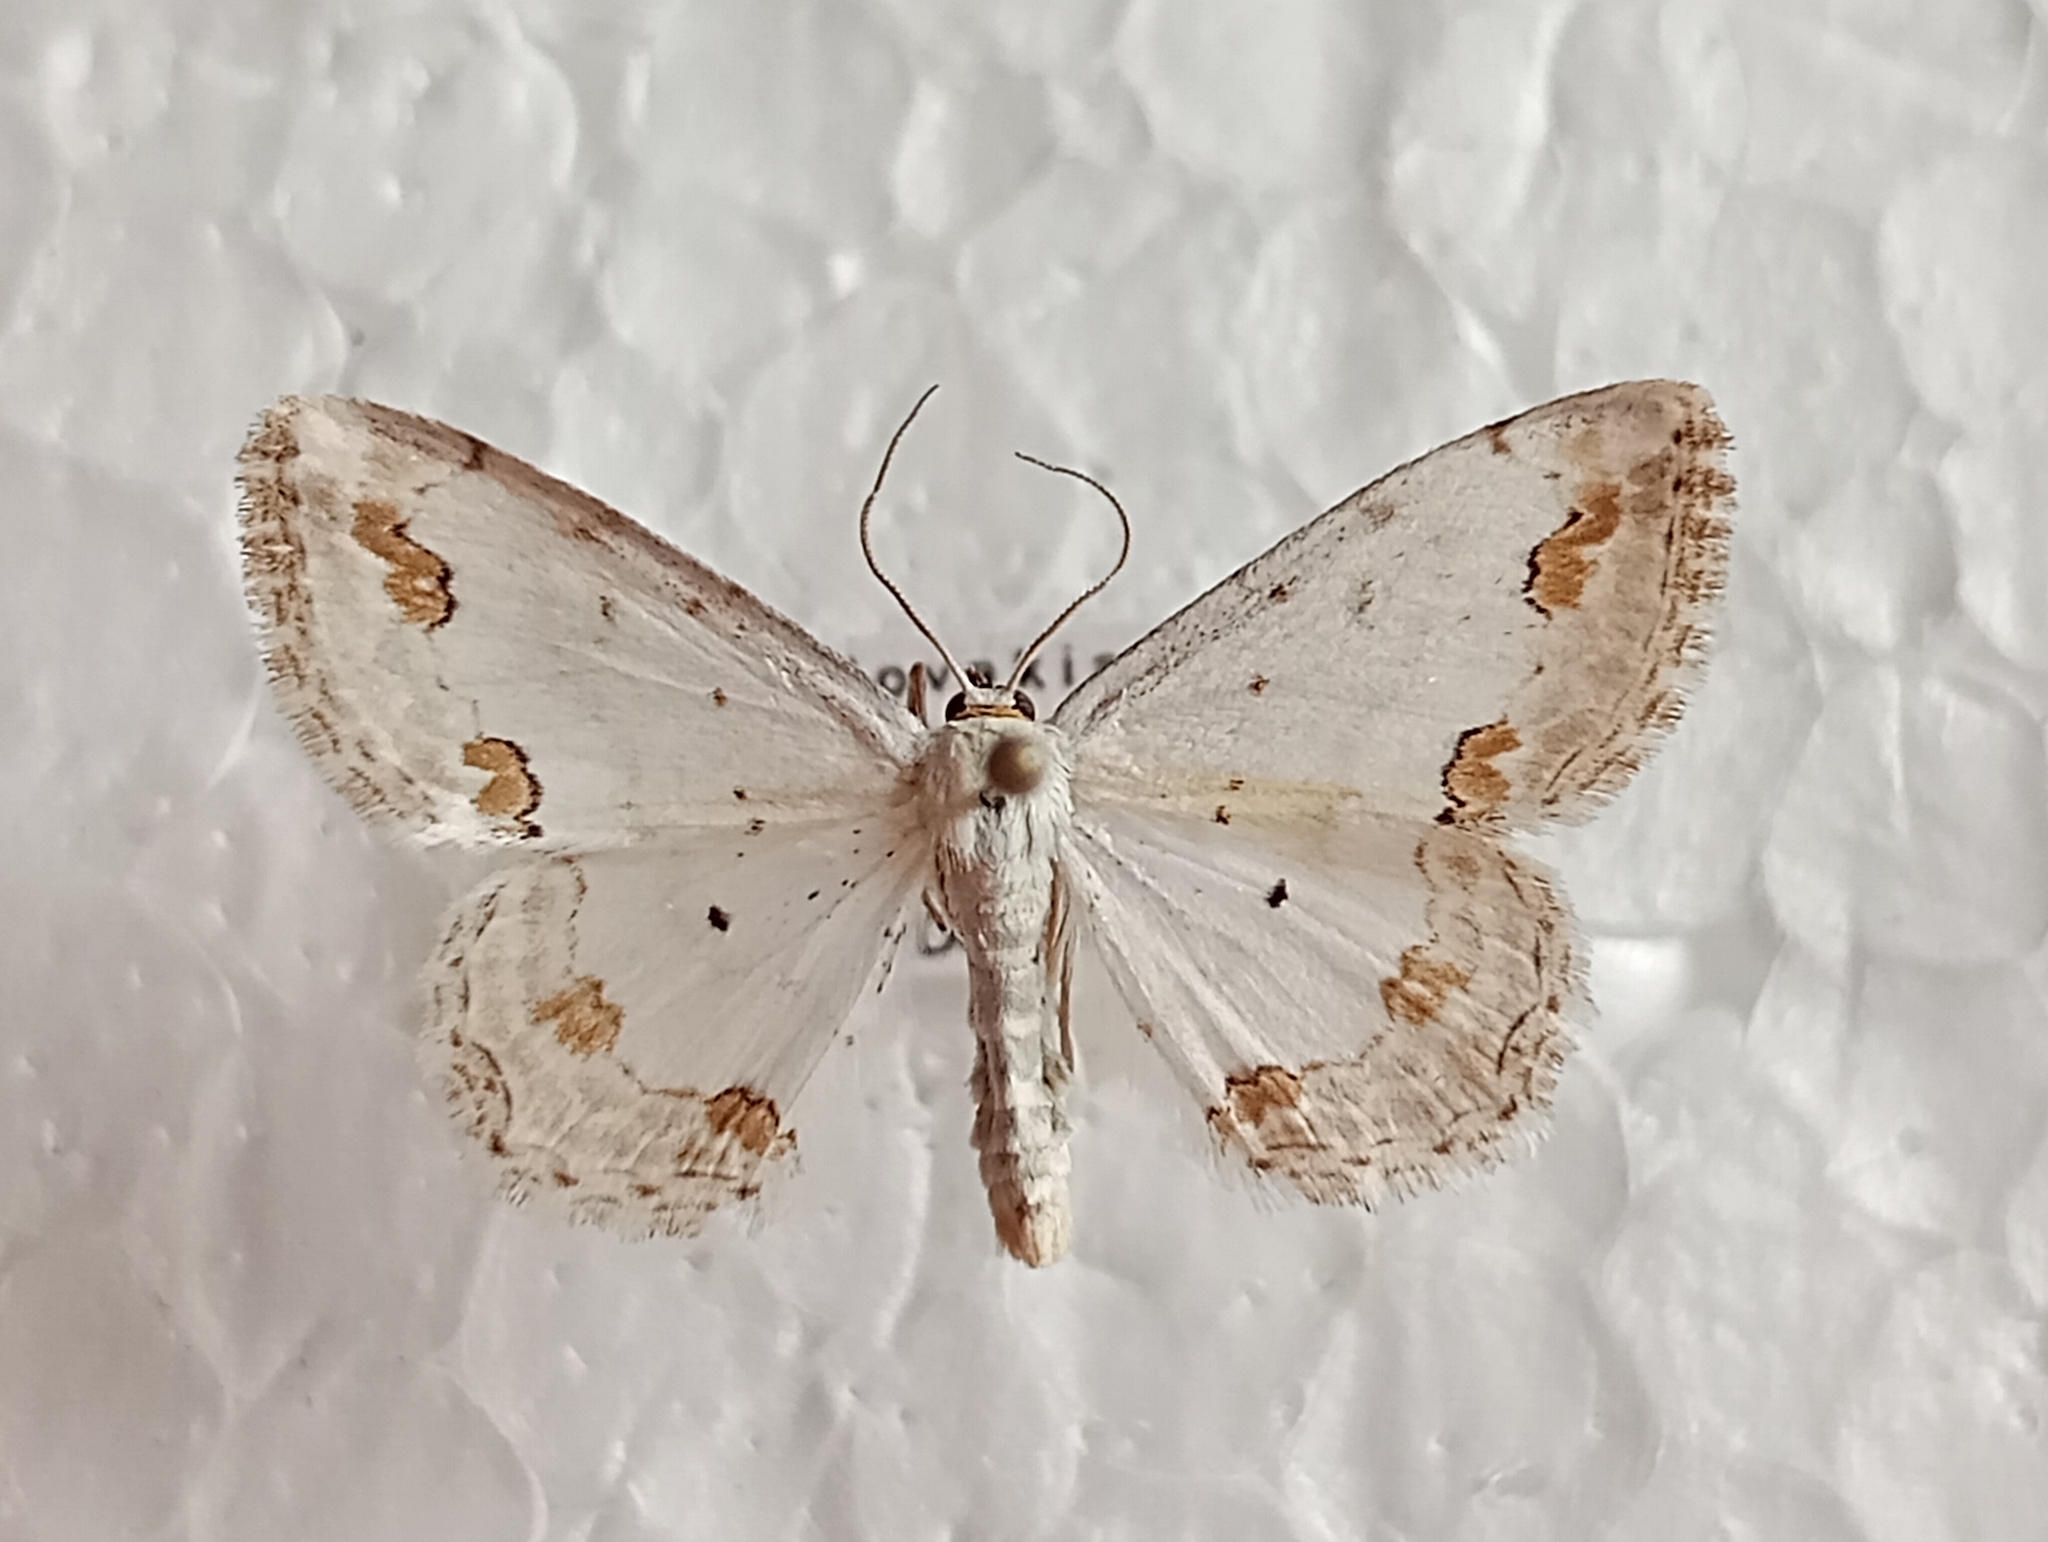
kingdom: Animalia
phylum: Arthropoda
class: Insecta
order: Lepidoptera
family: Geometridae
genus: Scopula
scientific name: Scopula ornata
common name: Lace border
